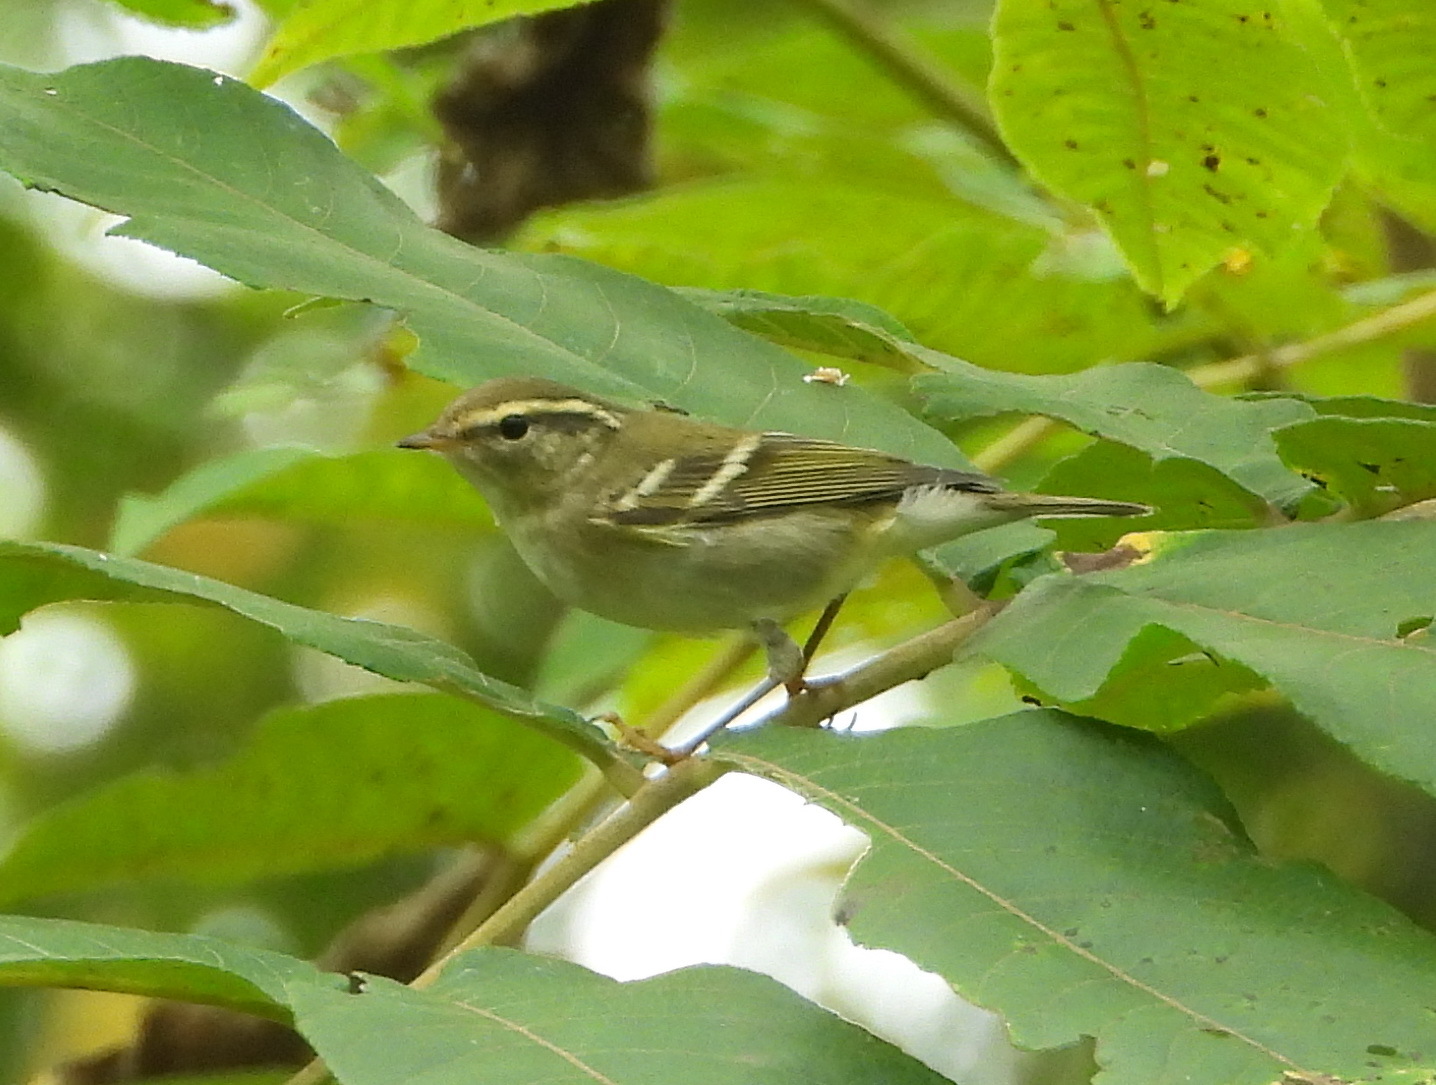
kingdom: Animalia
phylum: Chordata
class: Aves
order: Passeriformes
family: Phylloscopidae
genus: Phylloscopus
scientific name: Phylloscopus inornatus
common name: Yellow-browed warbler
